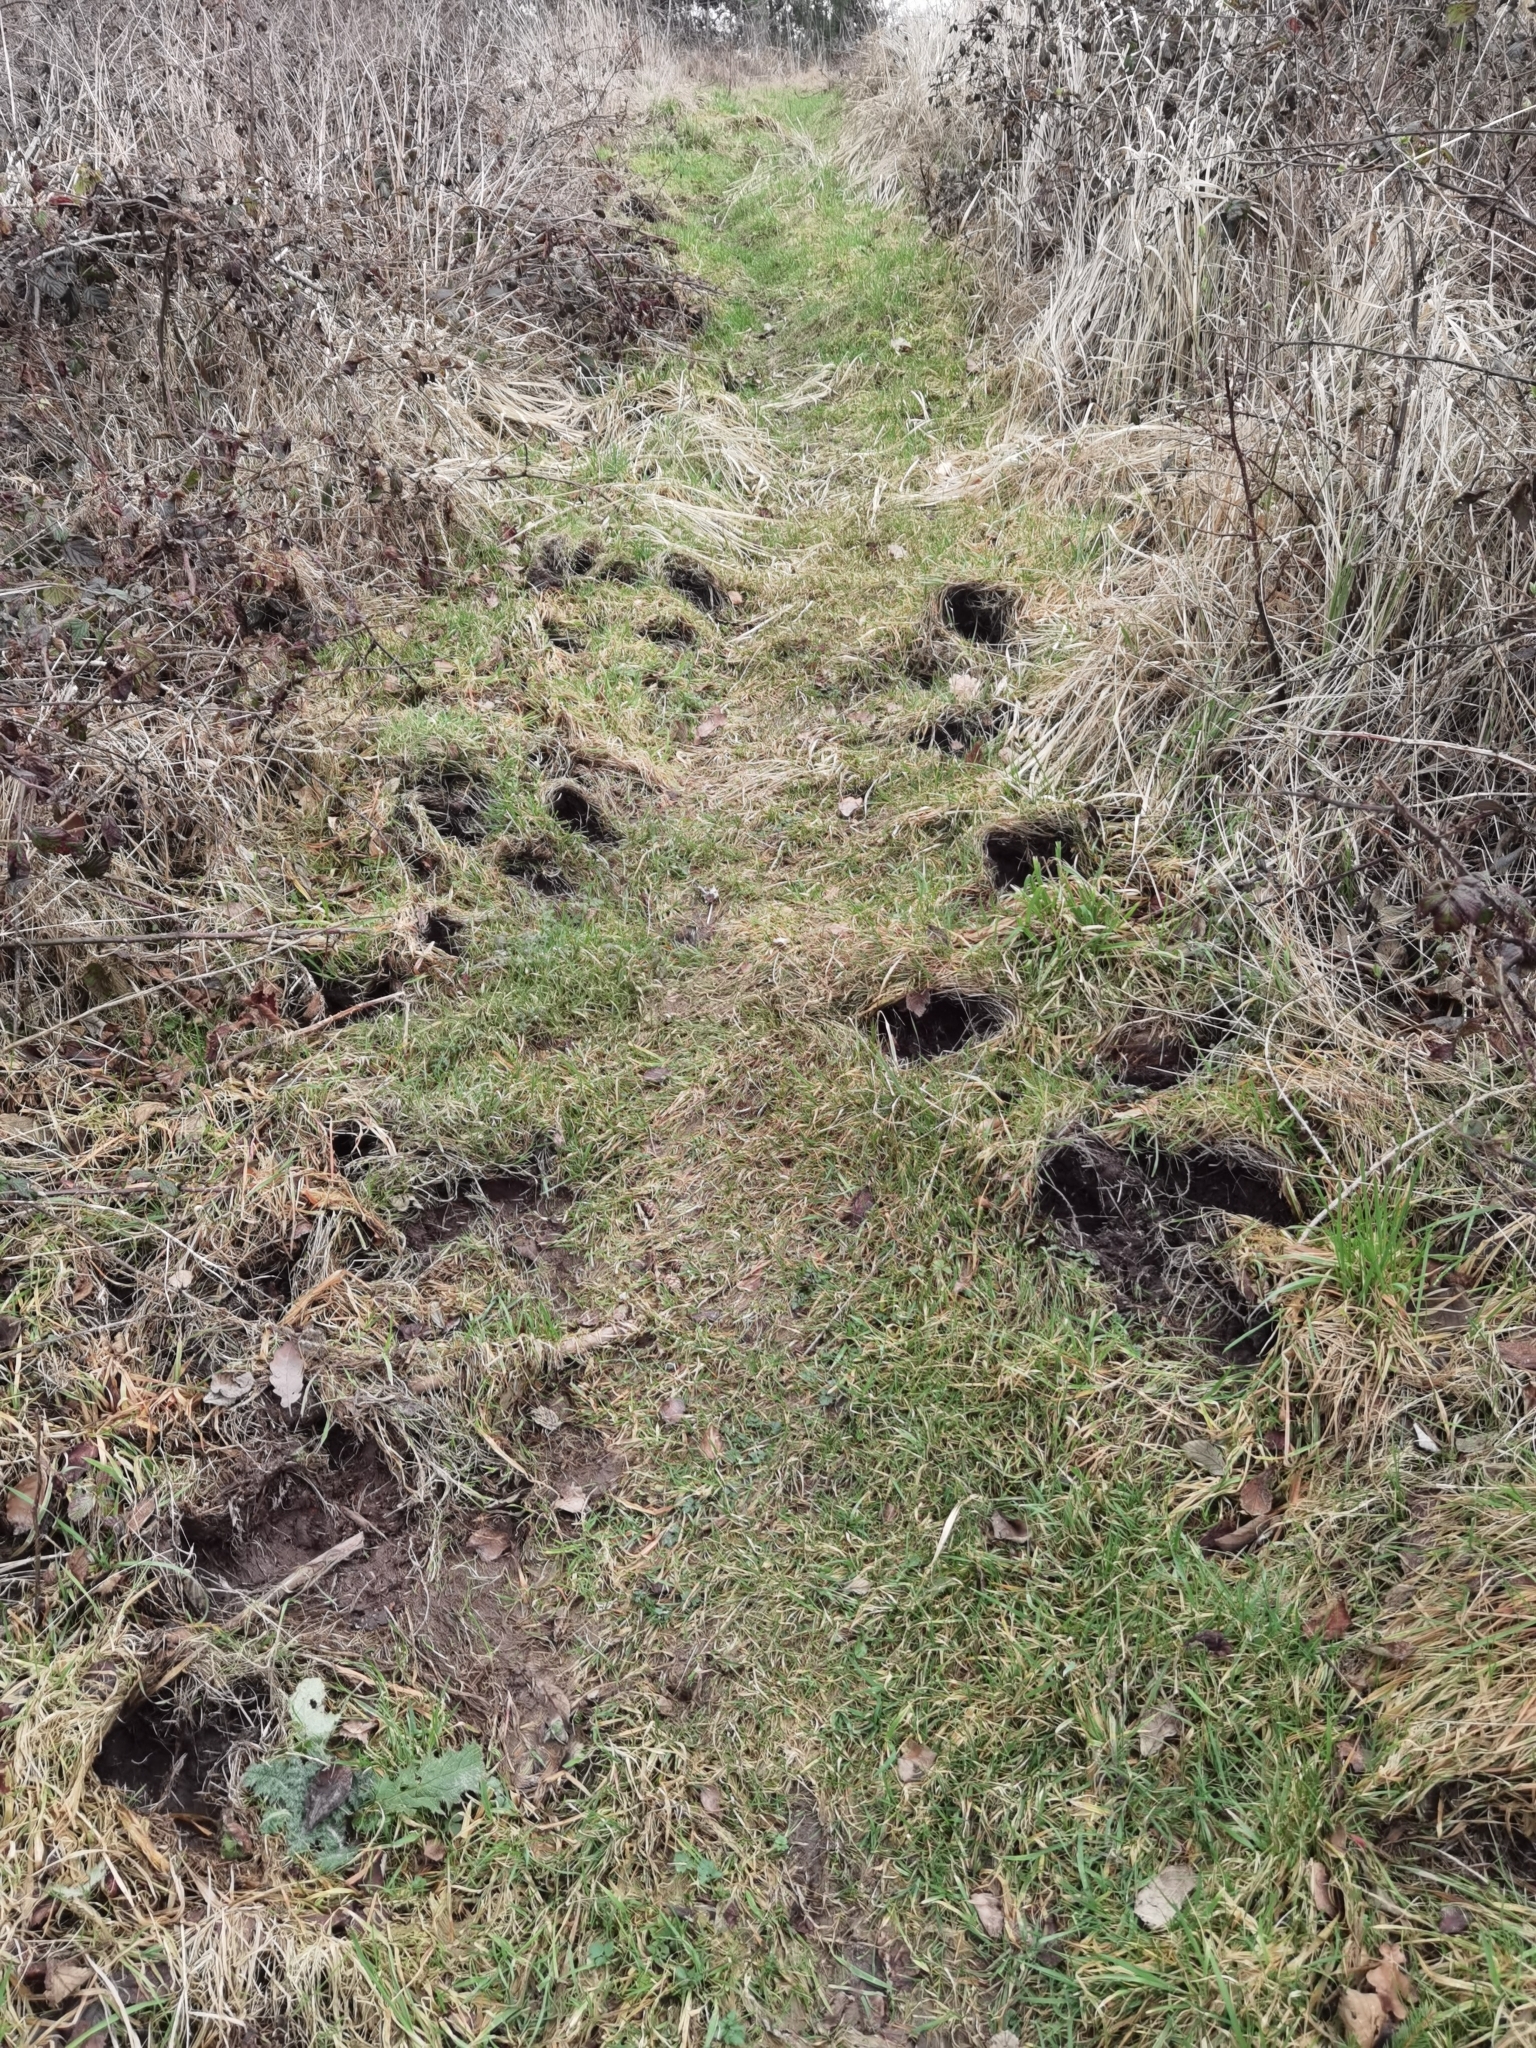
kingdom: Animalia
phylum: Chordata
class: Mammalia
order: Artiodactyla
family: Suidae
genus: Sus
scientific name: Sus scrofa
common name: Wild boar
